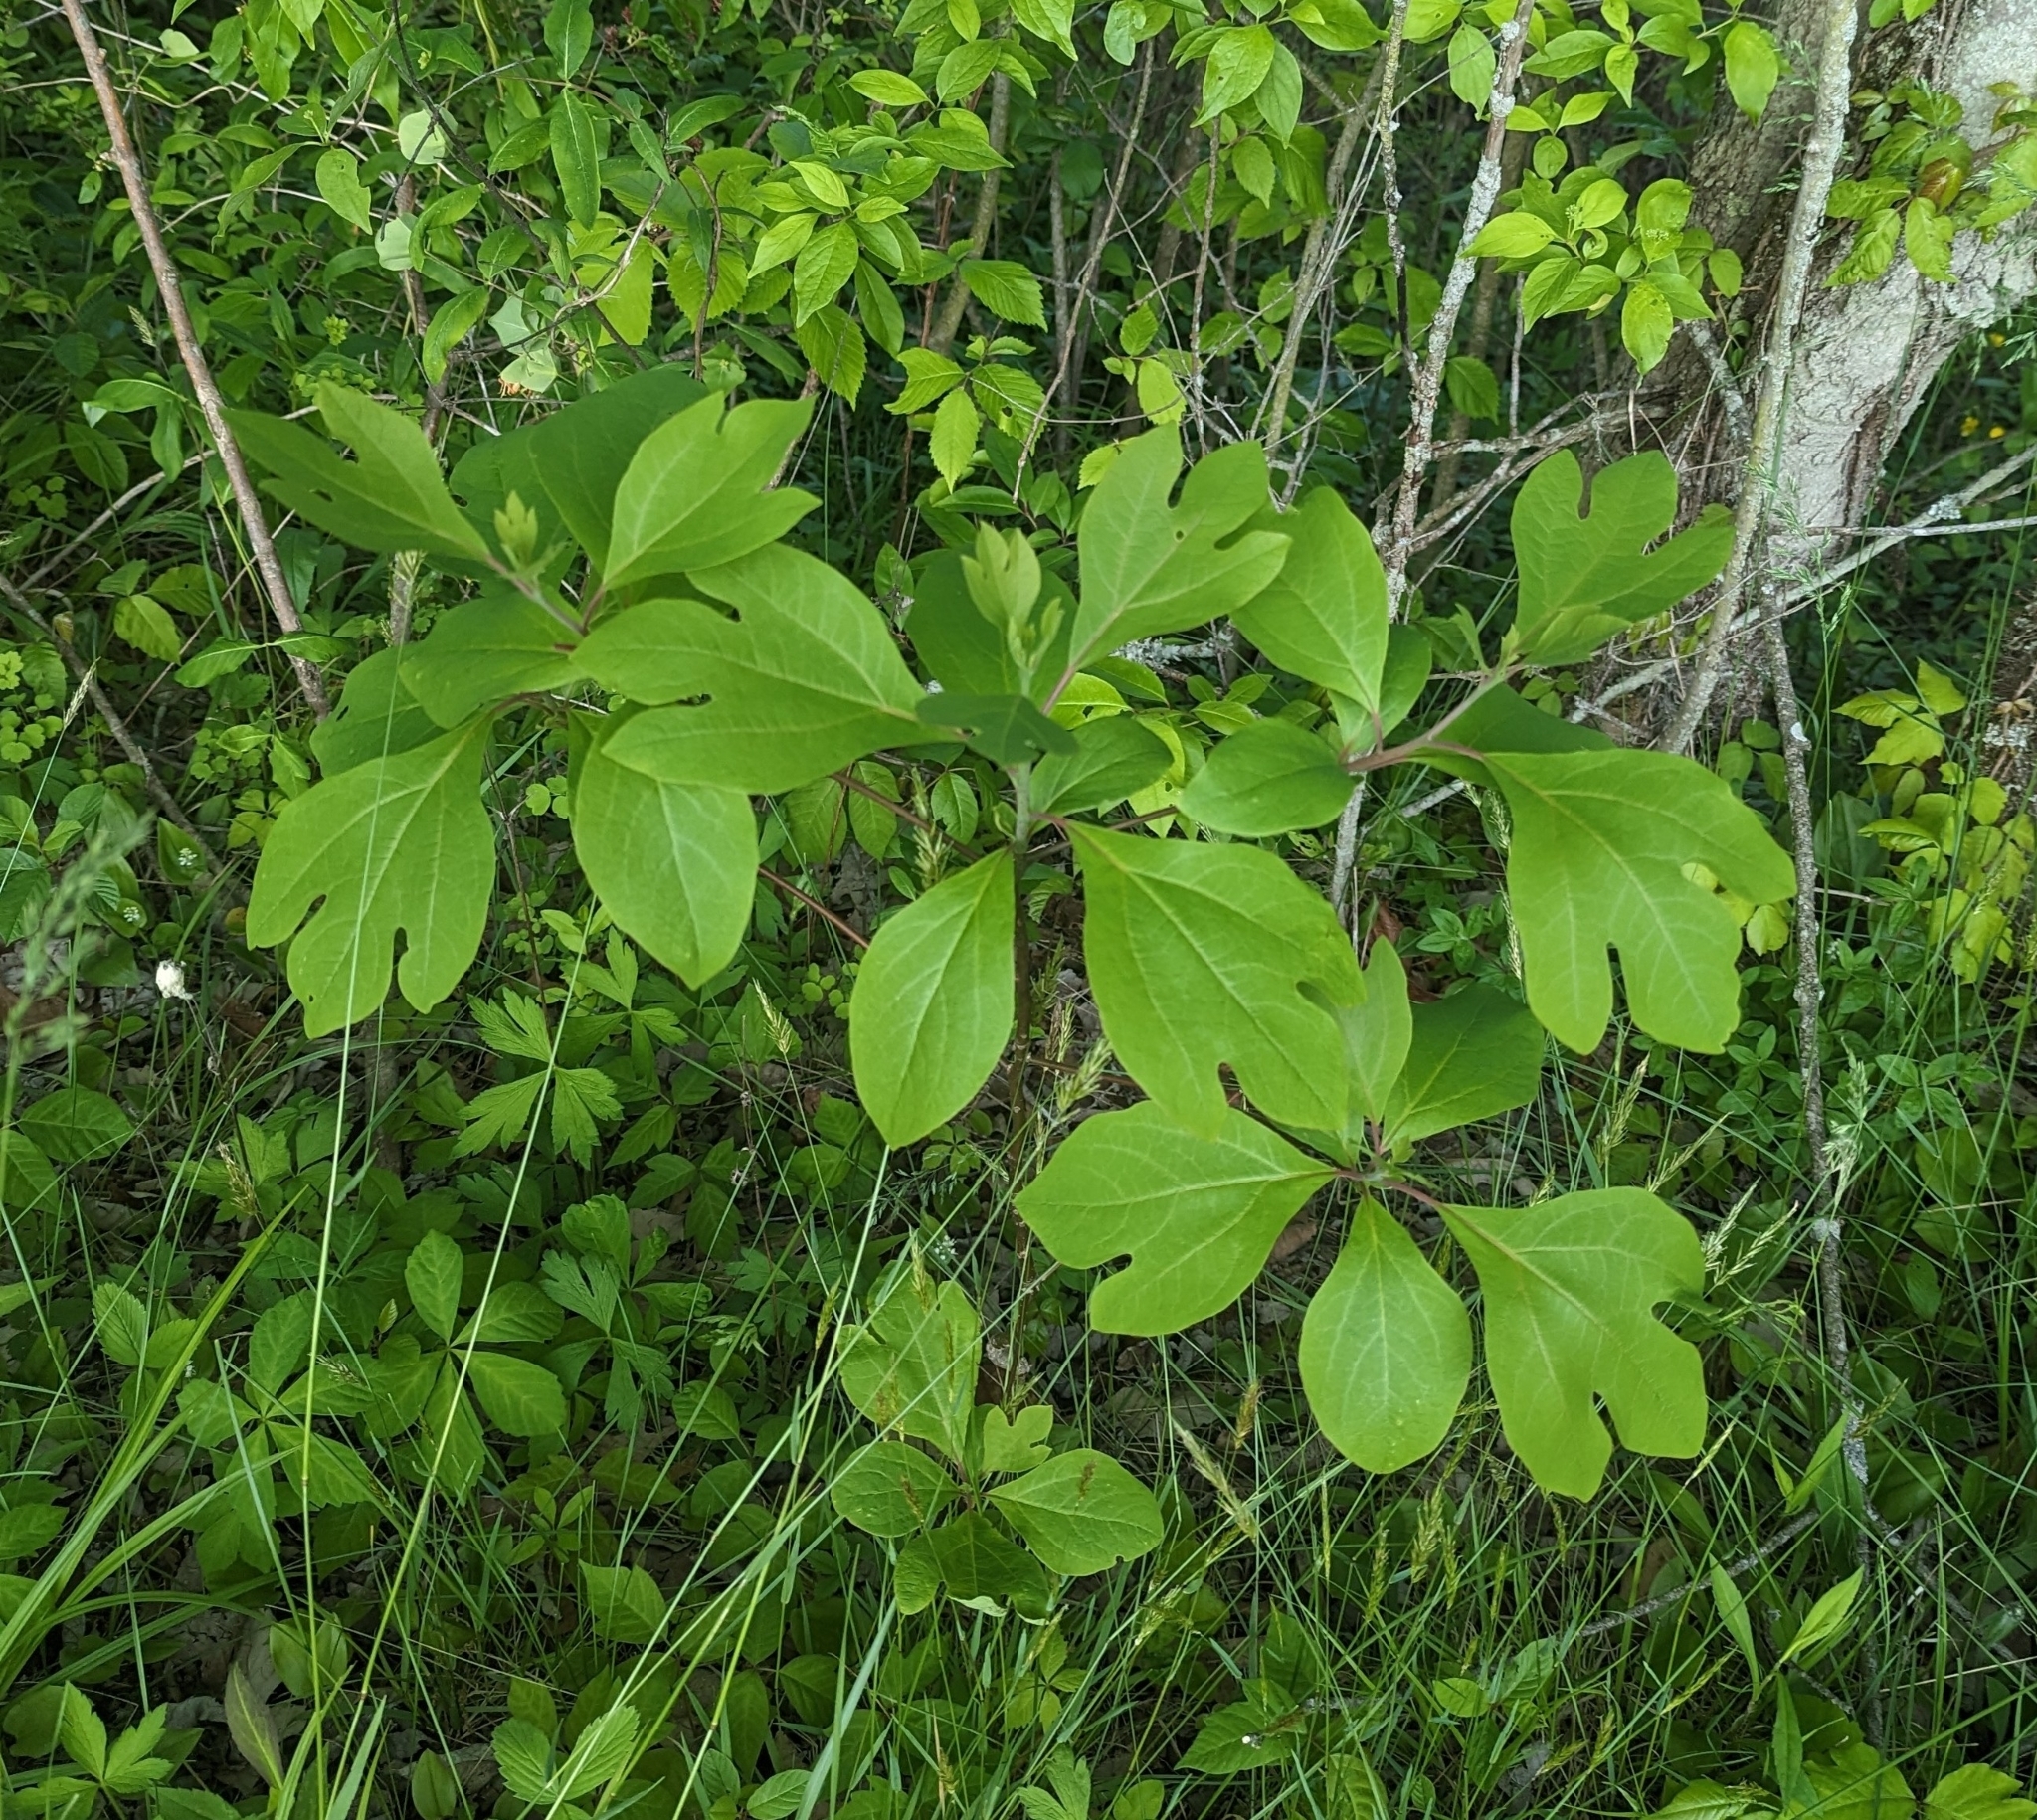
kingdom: Plantae
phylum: Tracheophyta
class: Magnoliopsida
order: Laurales
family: Lauraceae
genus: Sassafras
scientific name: Sassafras albidum
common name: Sassafras
